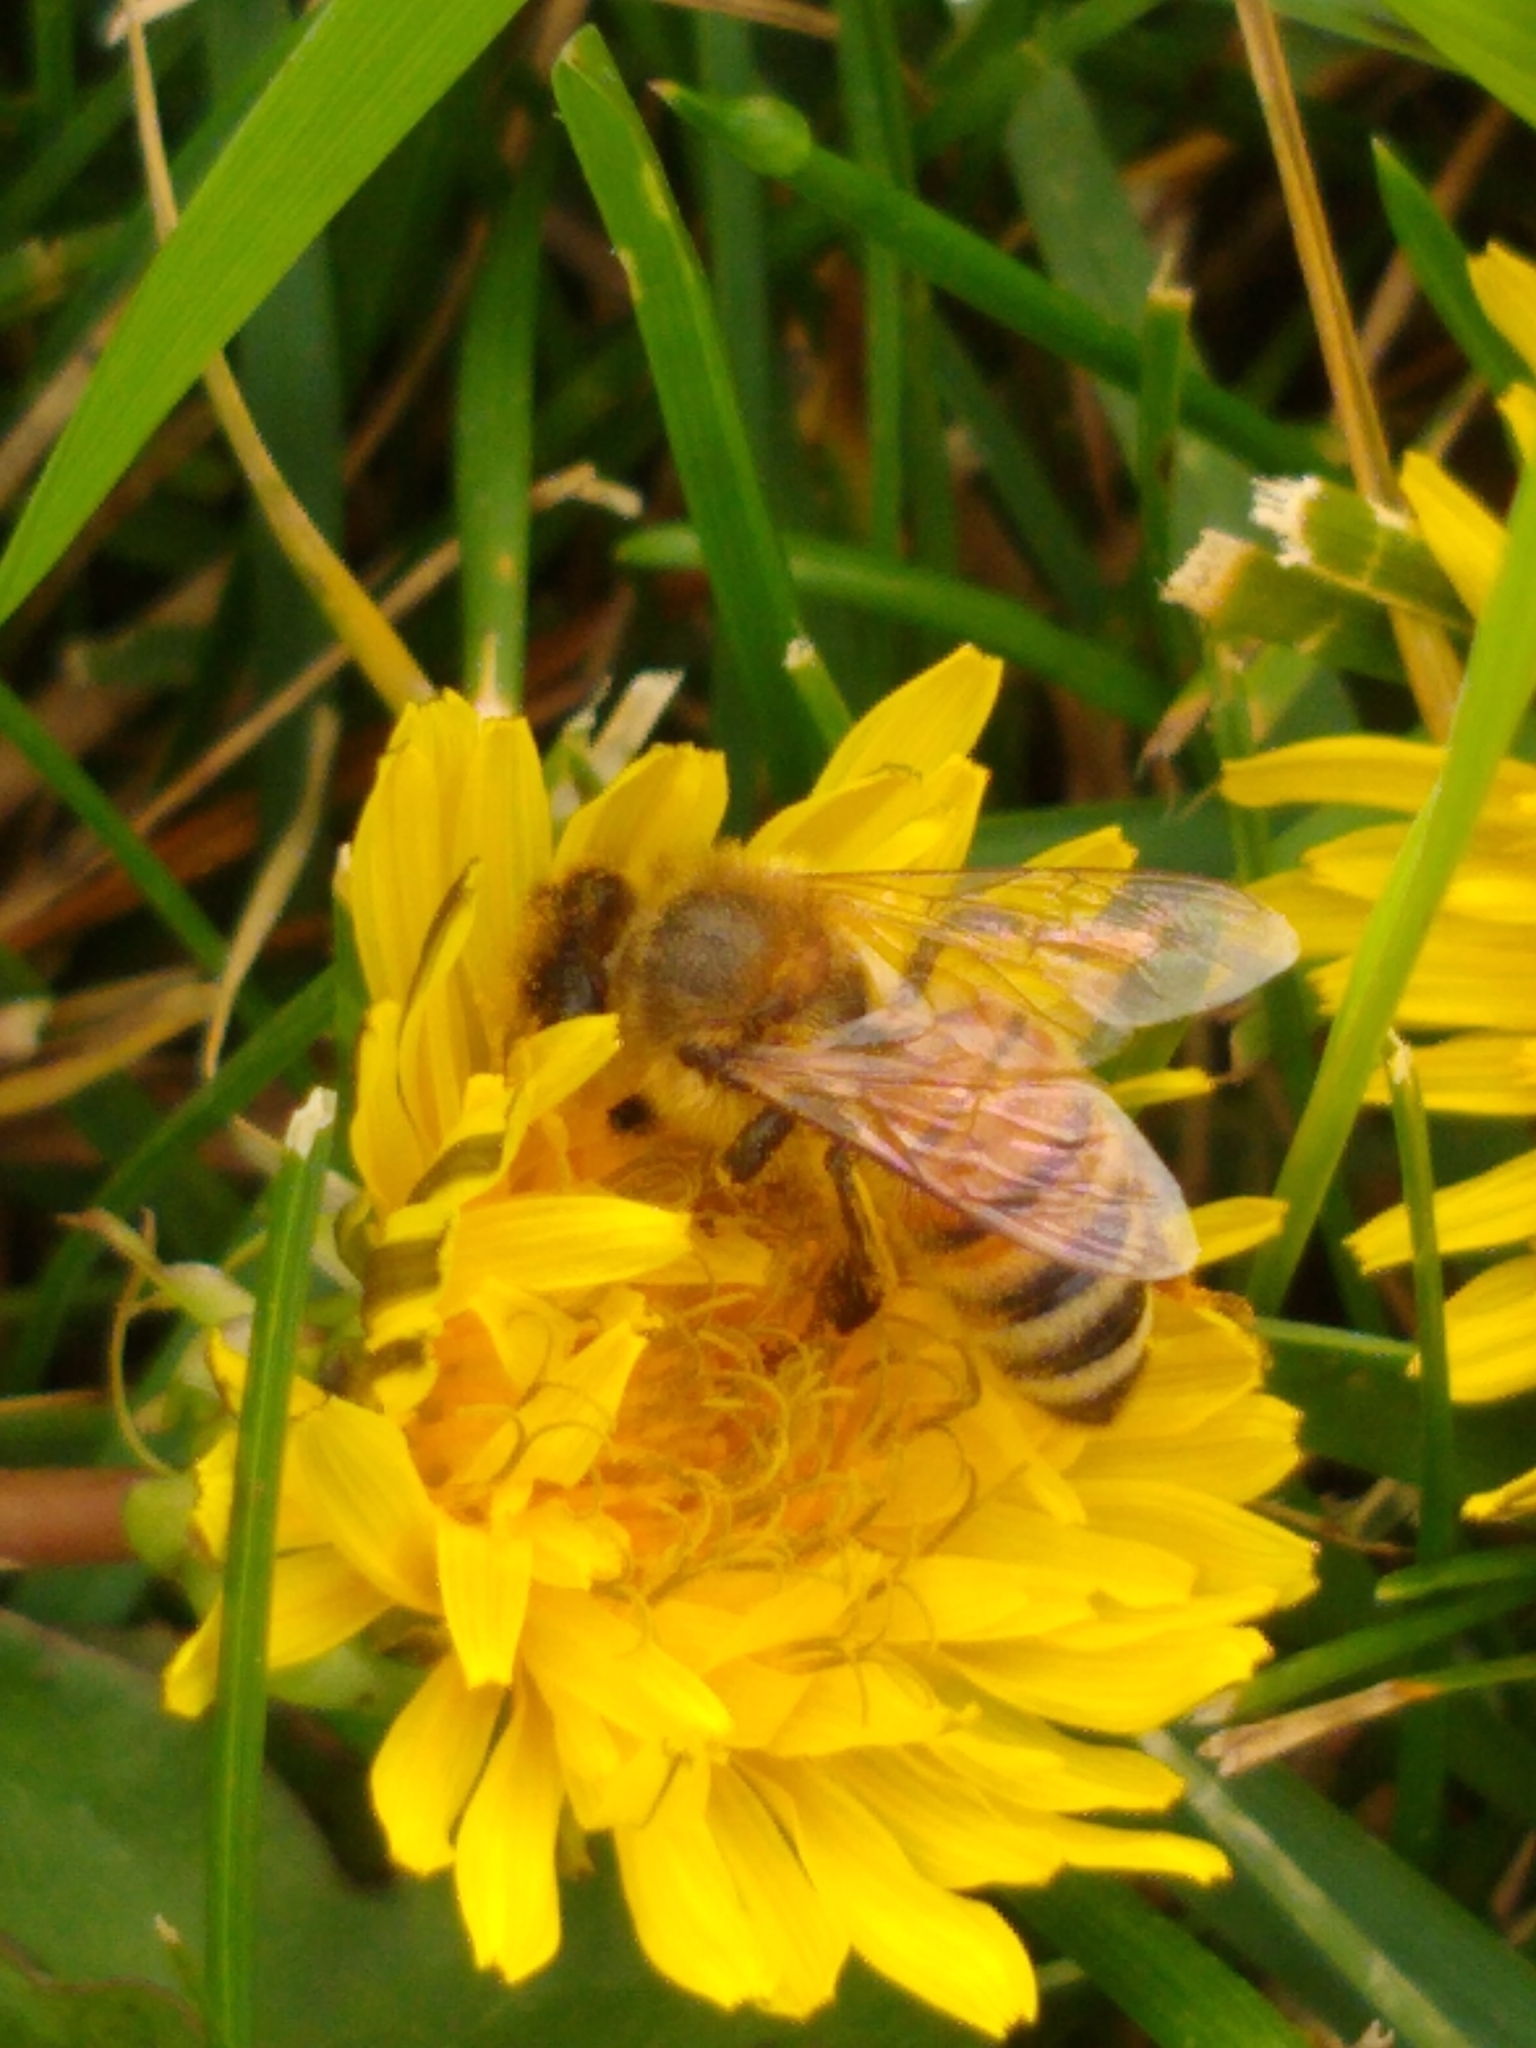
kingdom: Animalia
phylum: Arthropoda
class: Insecta
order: Hymenoptera
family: Apidae
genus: Apis
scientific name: Apis mellifera
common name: Honey bee
